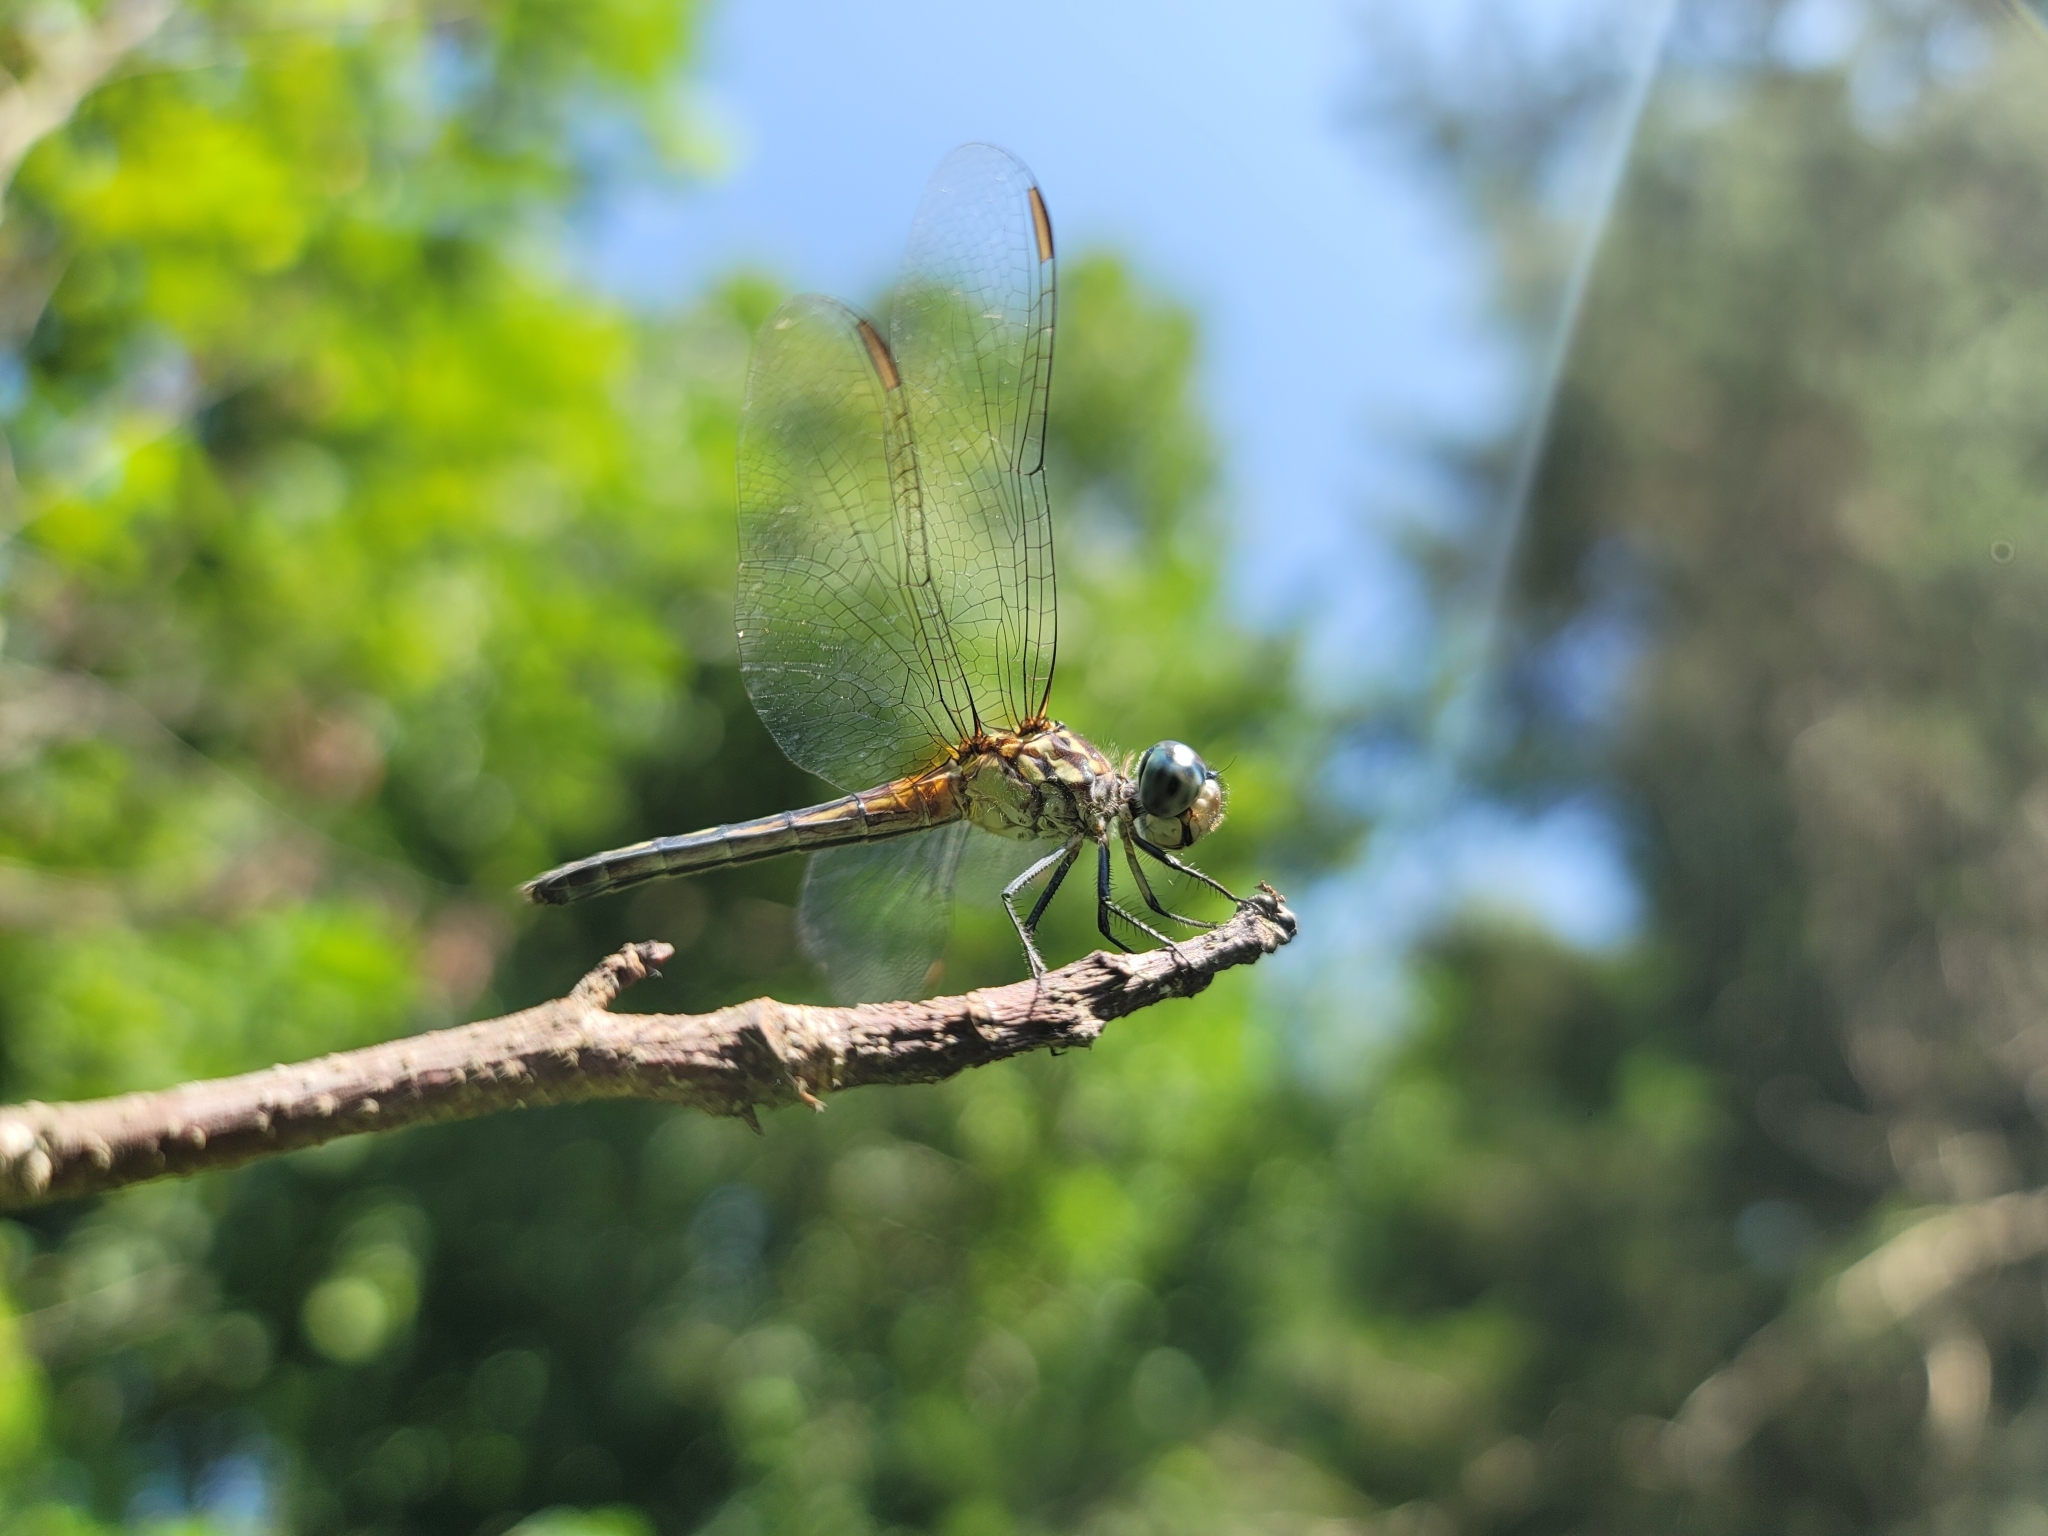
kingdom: Animalia
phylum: Arthropoda
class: Insecta
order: Odonata
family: Libellulidae
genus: Pachydiplax
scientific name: Pachydiplax longipennis
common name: Blue dasher
